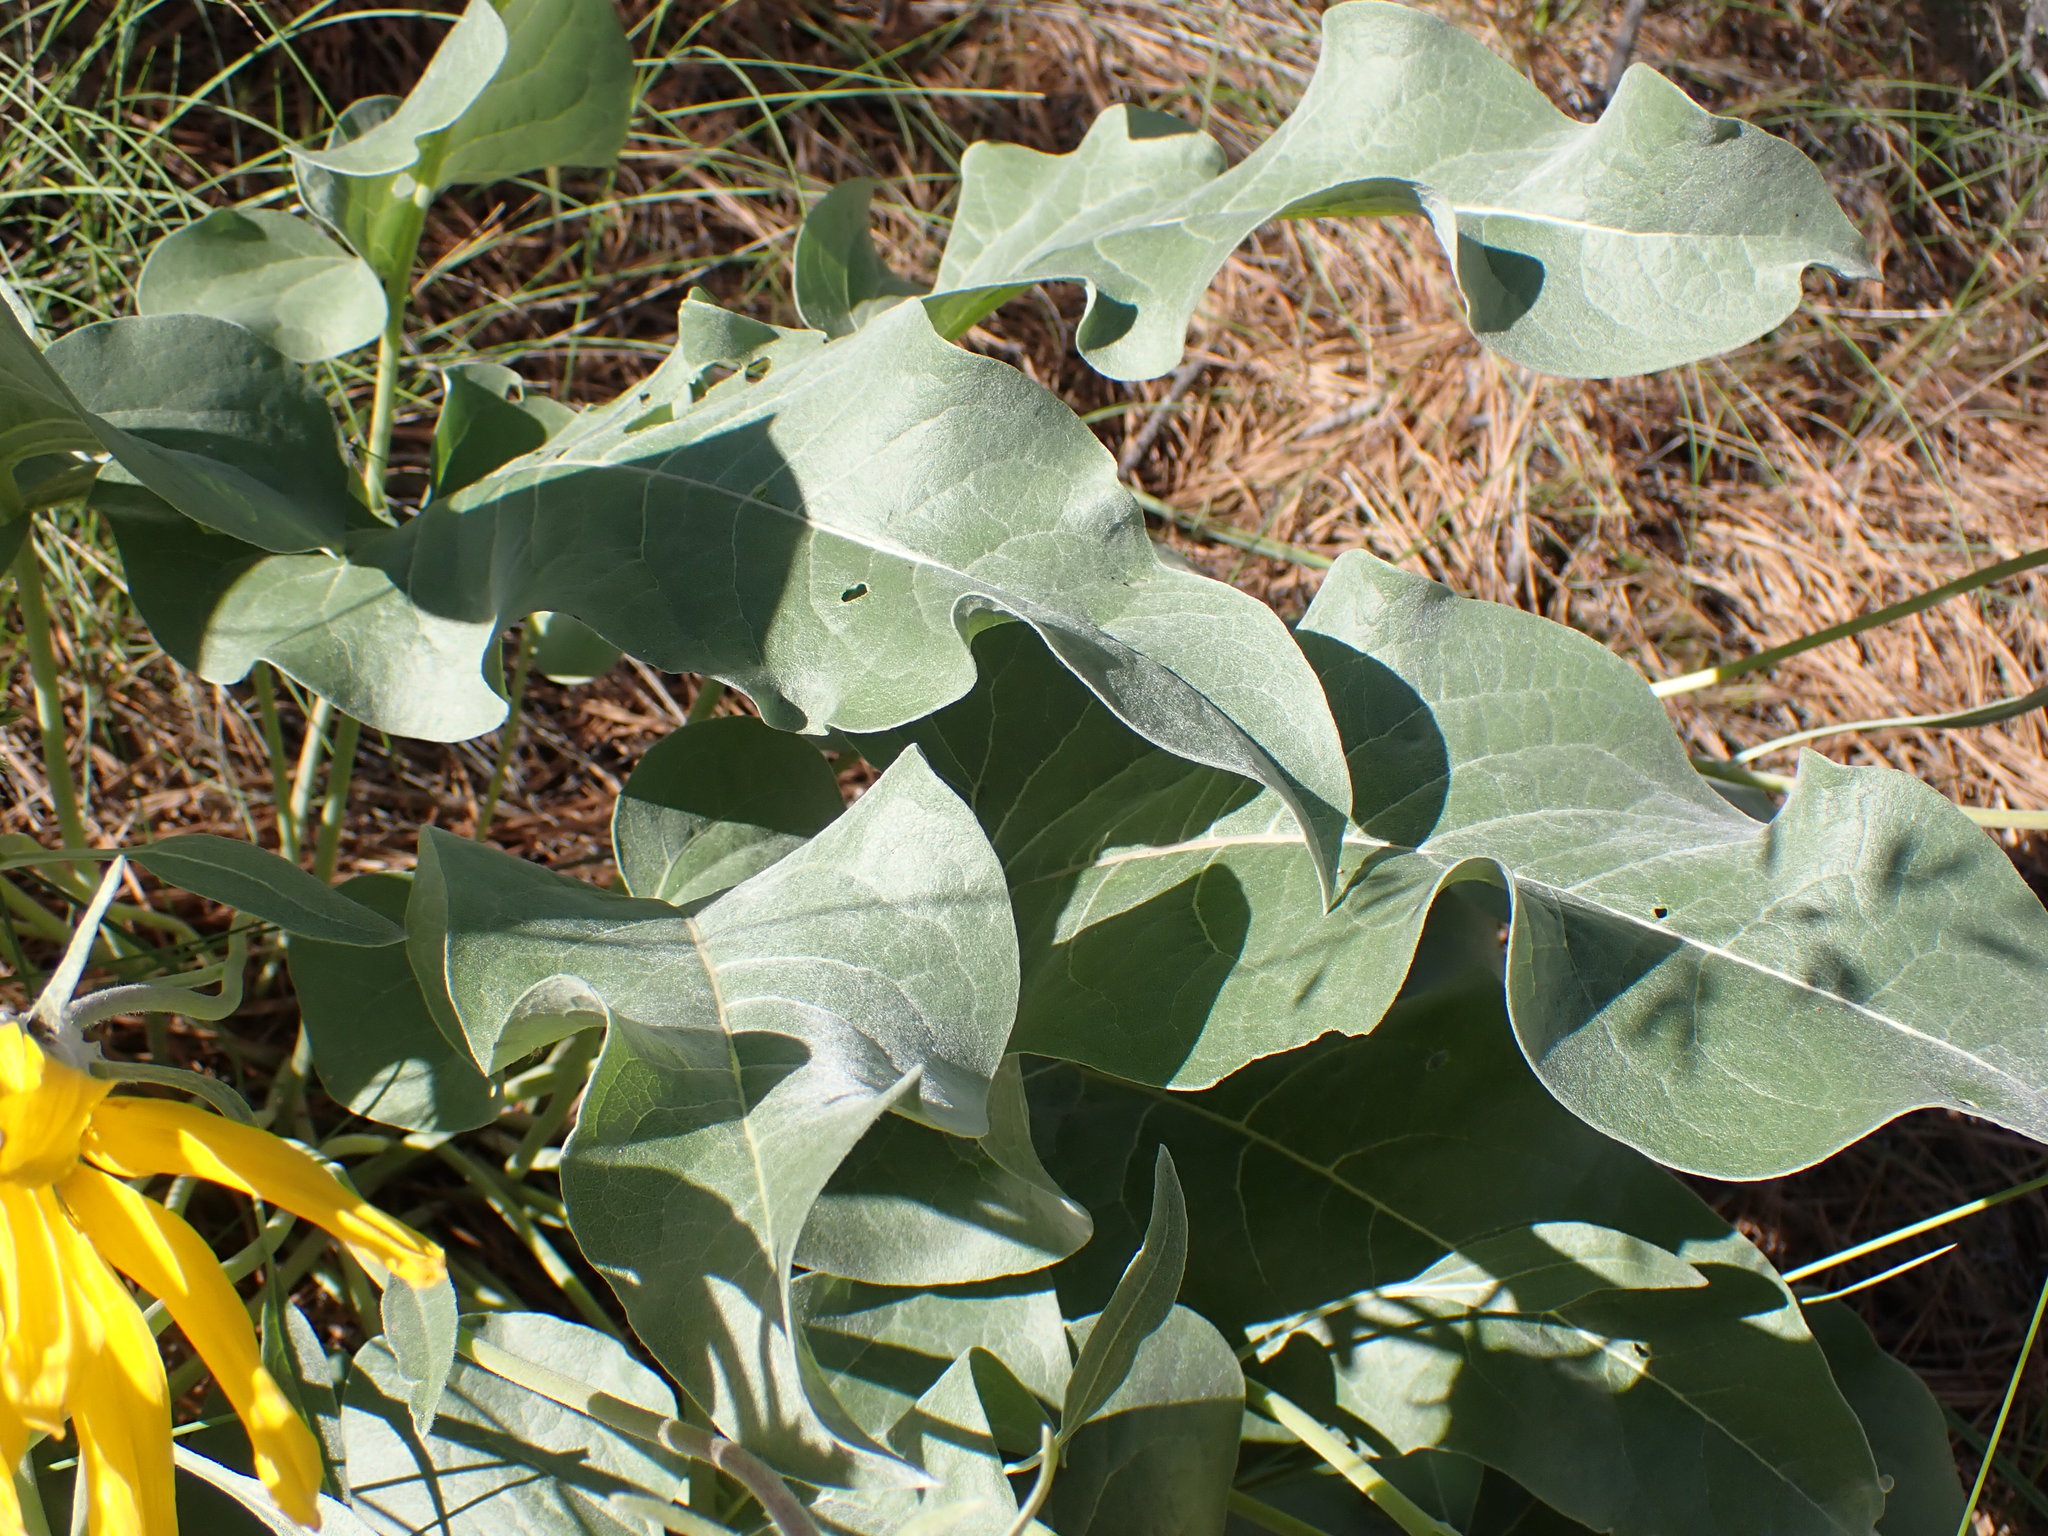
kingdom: Plantae
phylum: Tracheophyta
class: Magnoliopsida
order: Asterales
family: Asteraceae
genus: Wyethia
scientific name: Wyethia sagittata
